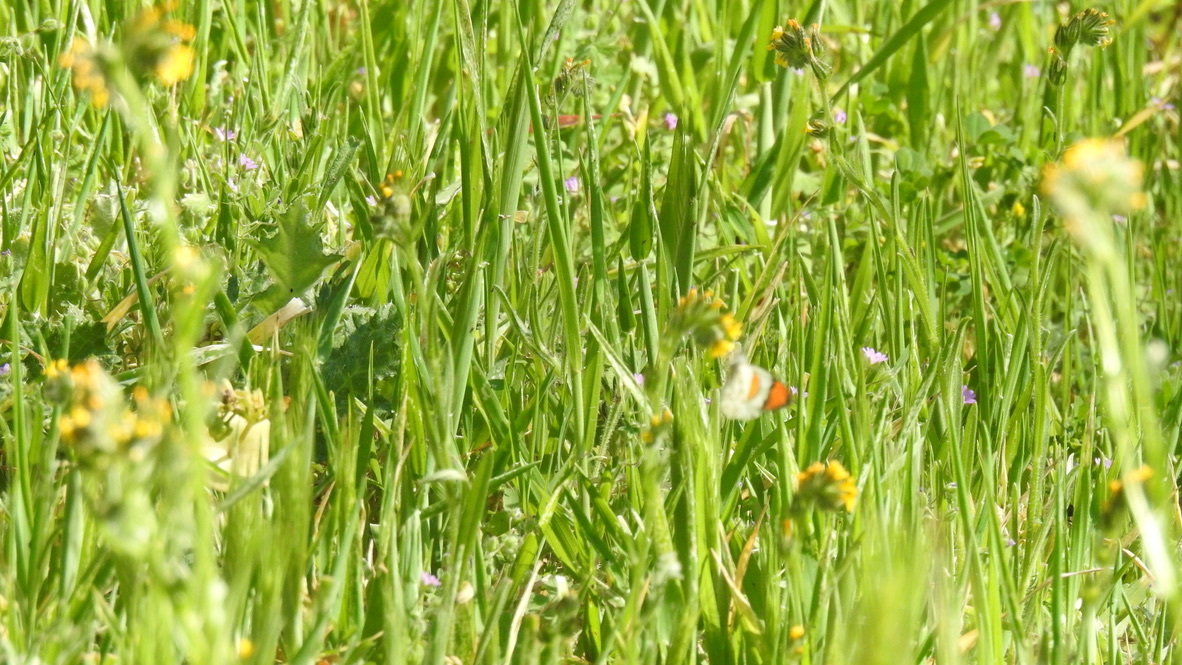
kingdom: Animalia
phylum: Arthropoda
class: Insecta
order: Lepidoptera
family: Pieridae
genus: Anthocharis
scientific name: Anthocharis sara
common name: Sara's orangetip
